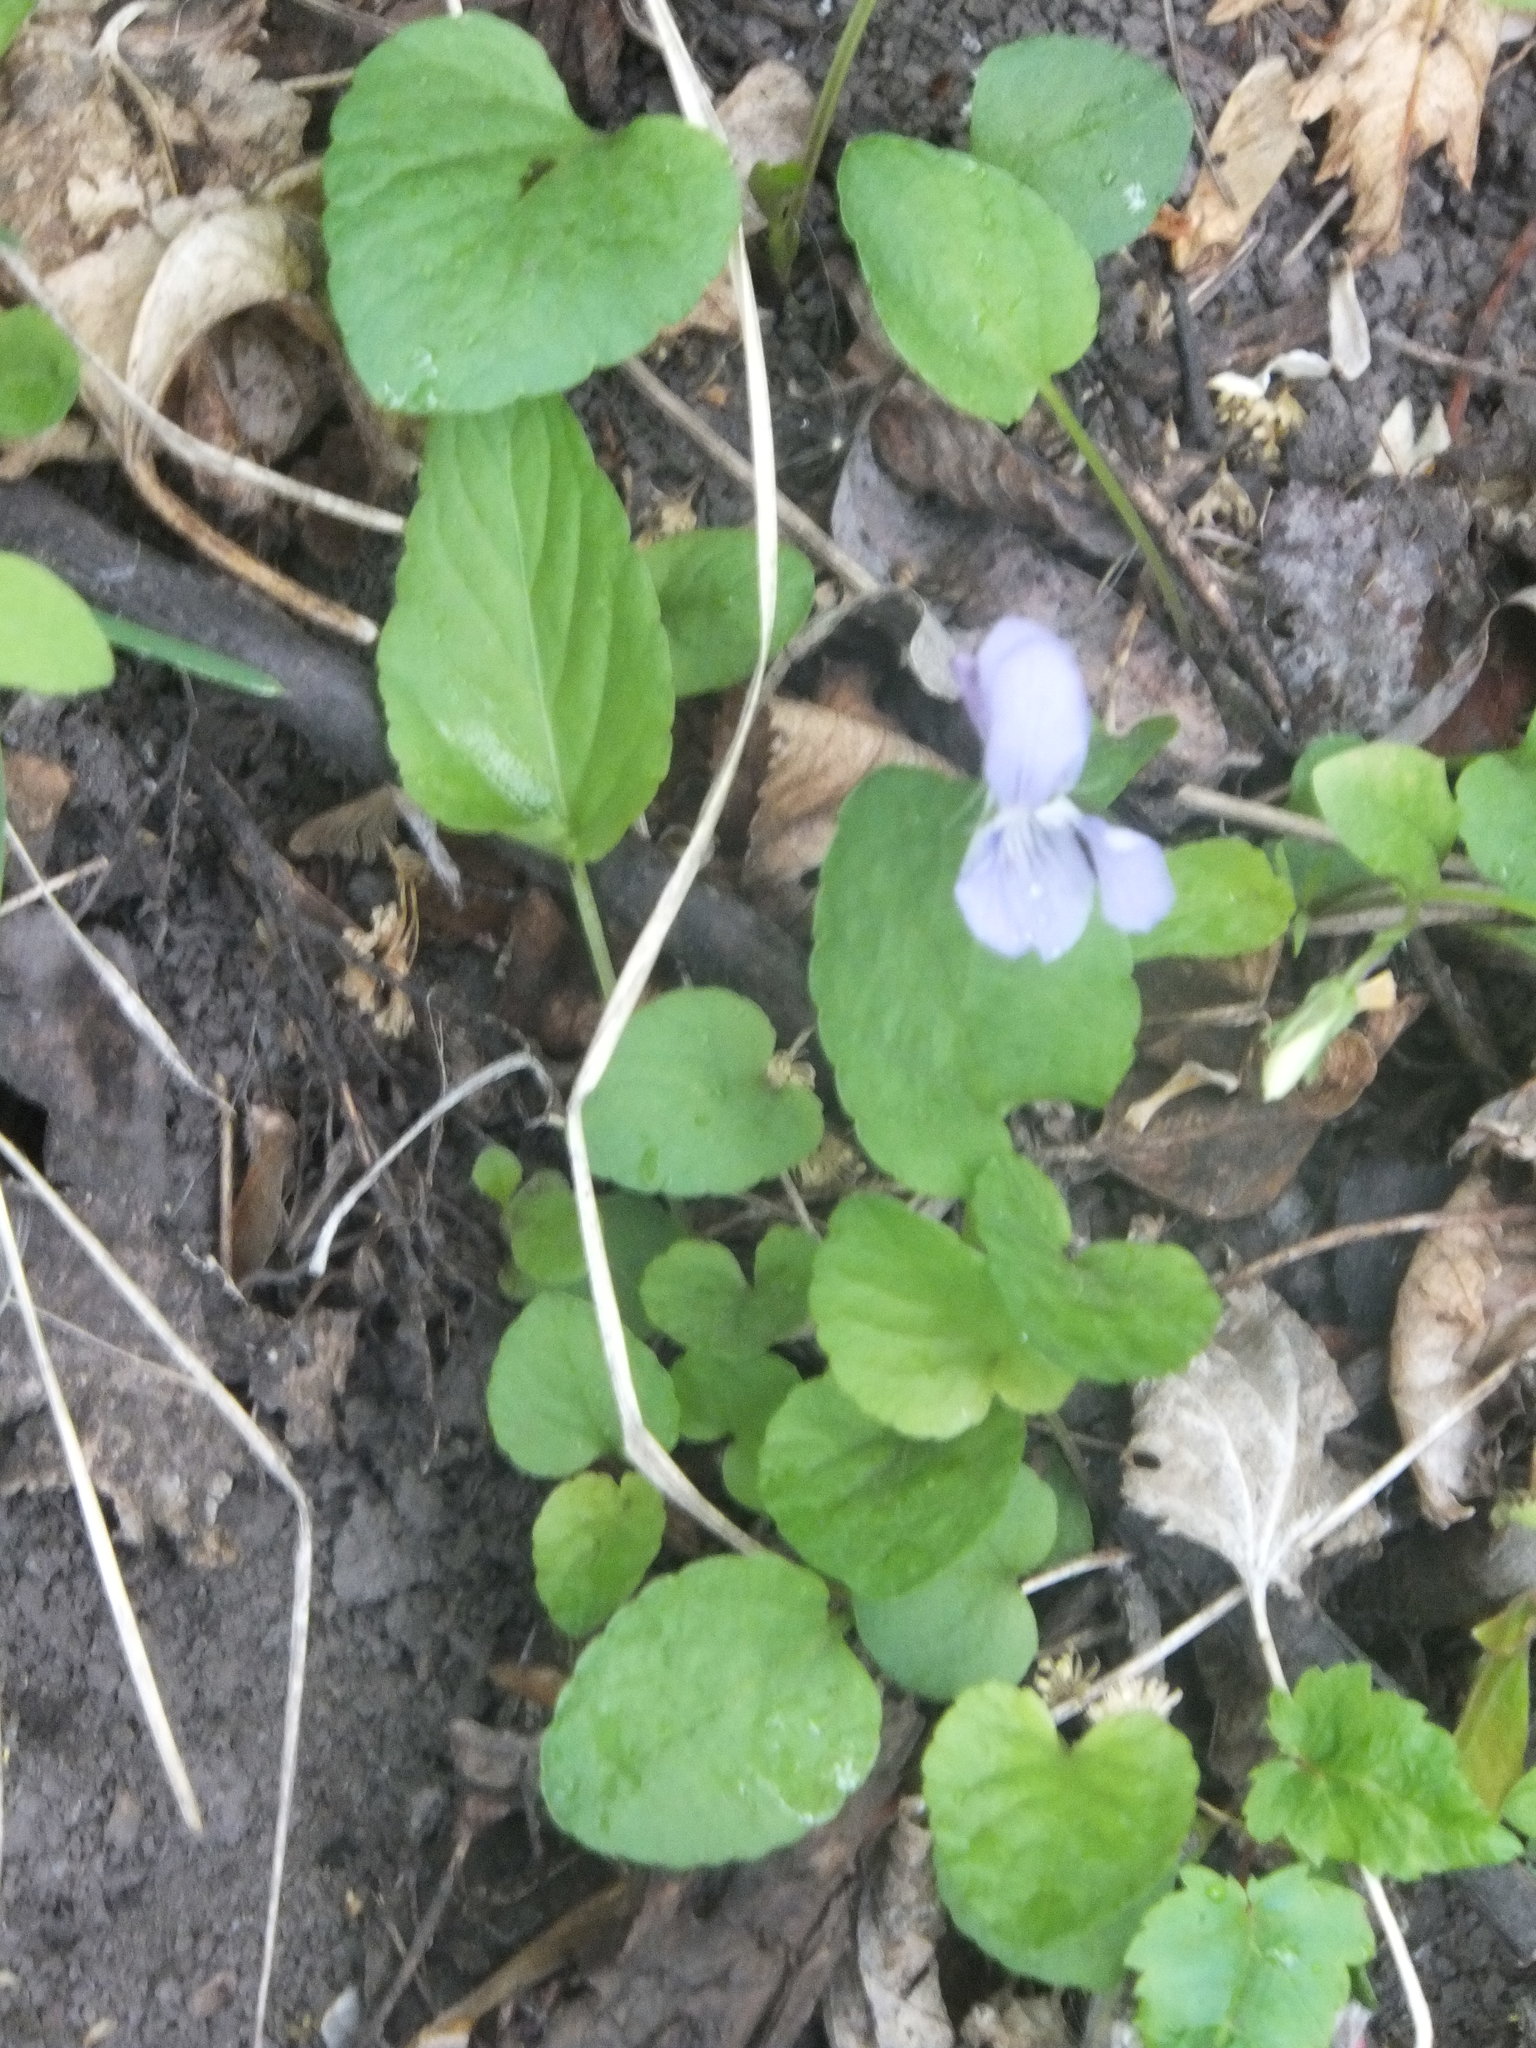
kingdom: Plantae
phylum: Tracheophyta
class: Magnoliopsida
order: Malpighiales
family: Violaceae
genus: Viola
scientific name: Viola adunca
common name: Sand violet
